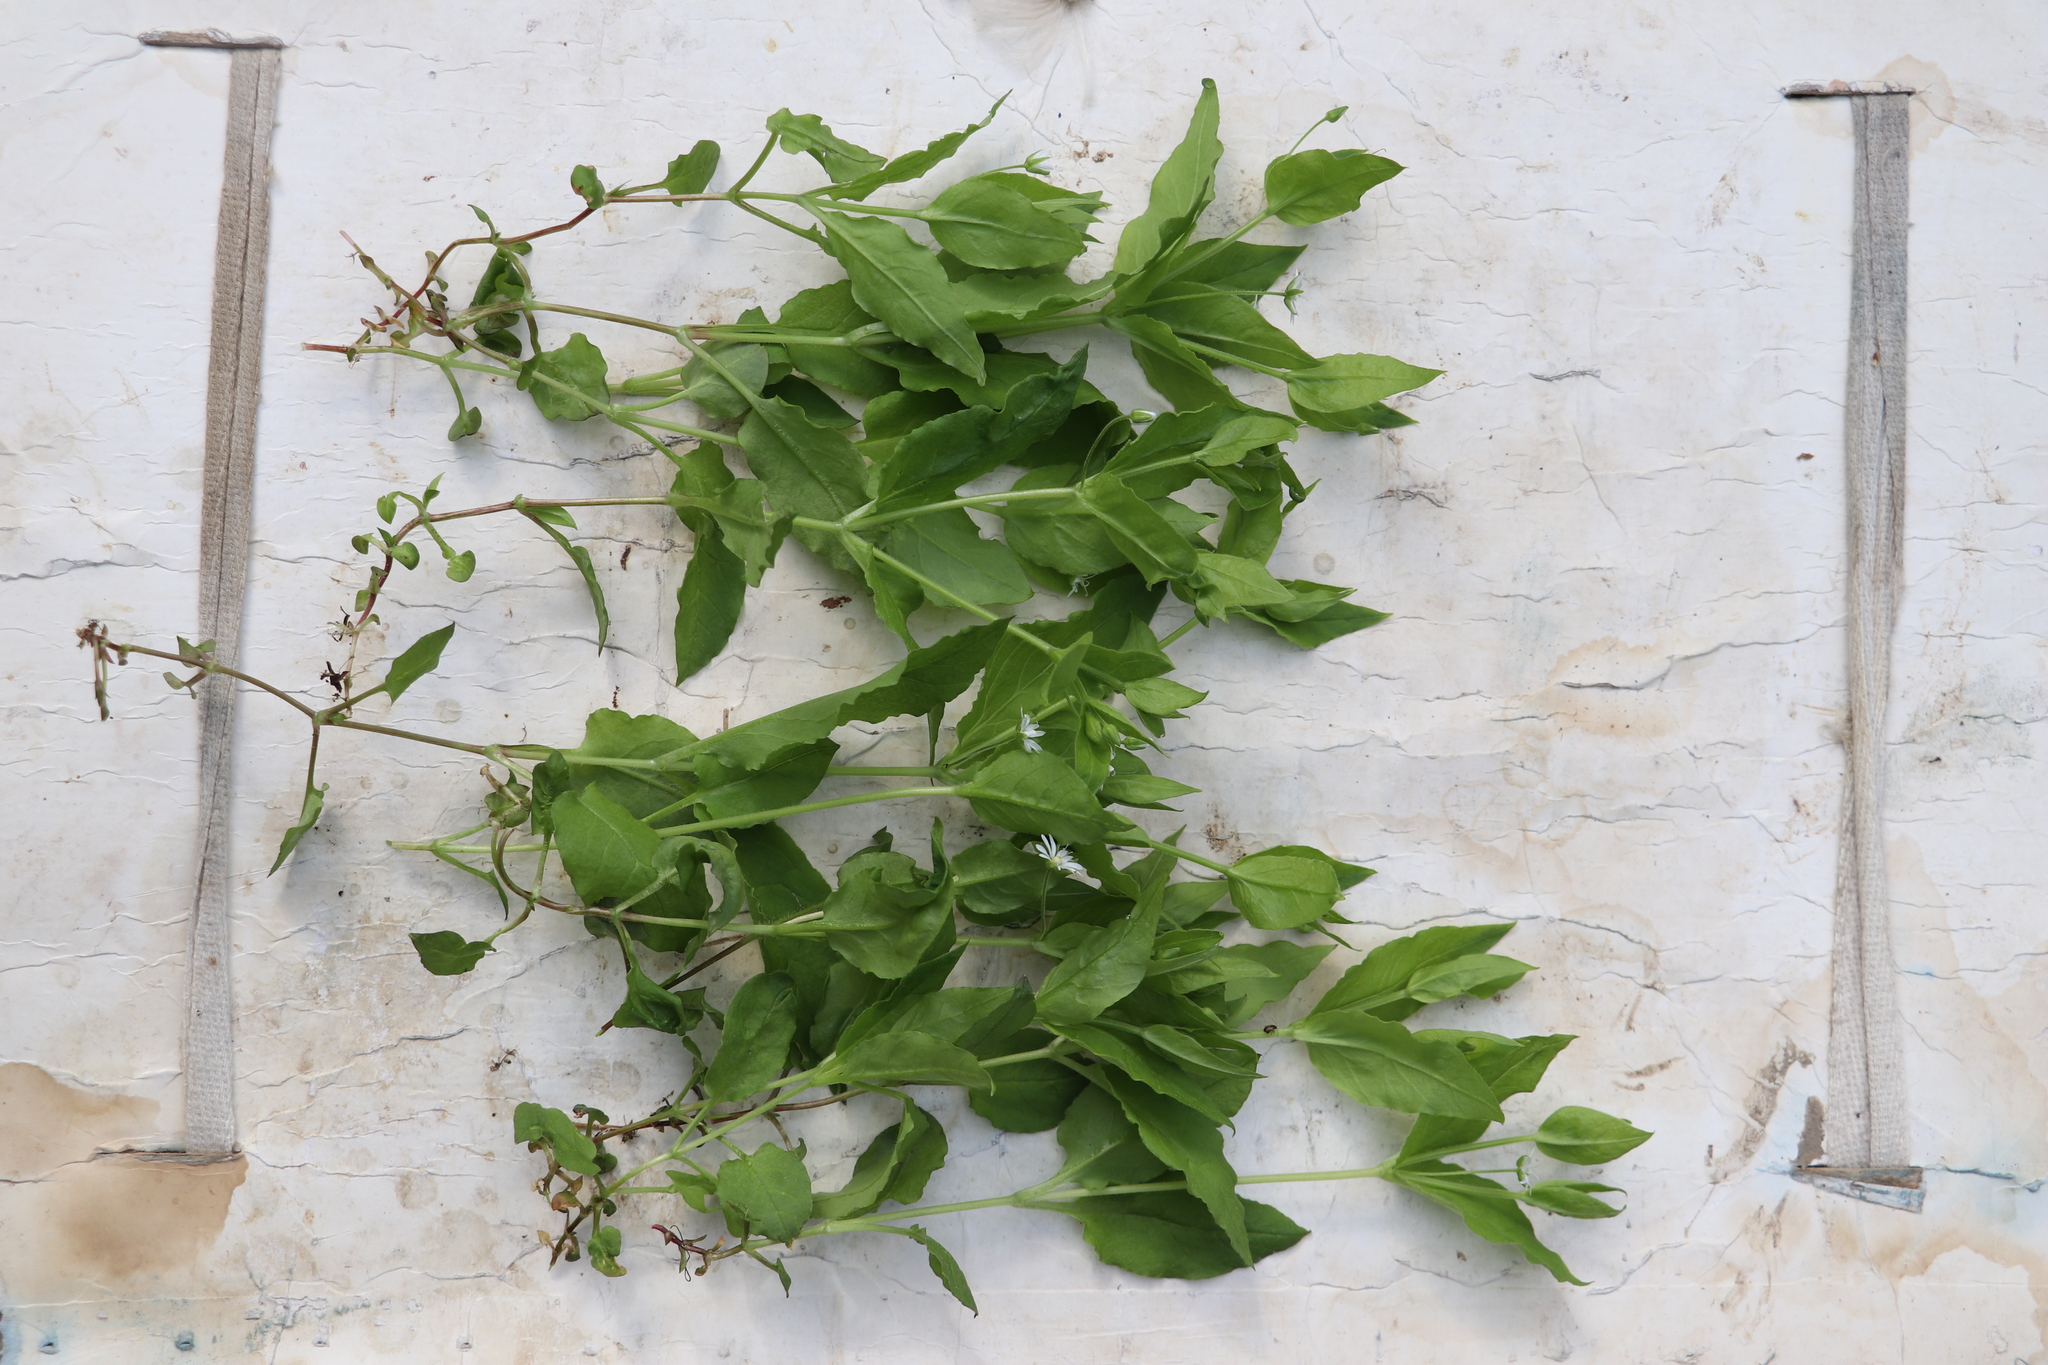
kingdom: Plantae
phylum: Tracheophyta
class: Magnoliopsida
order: Caryophyllales
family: Caryophyllaceae
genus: Stellaria
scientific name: Stellaria bungeana
